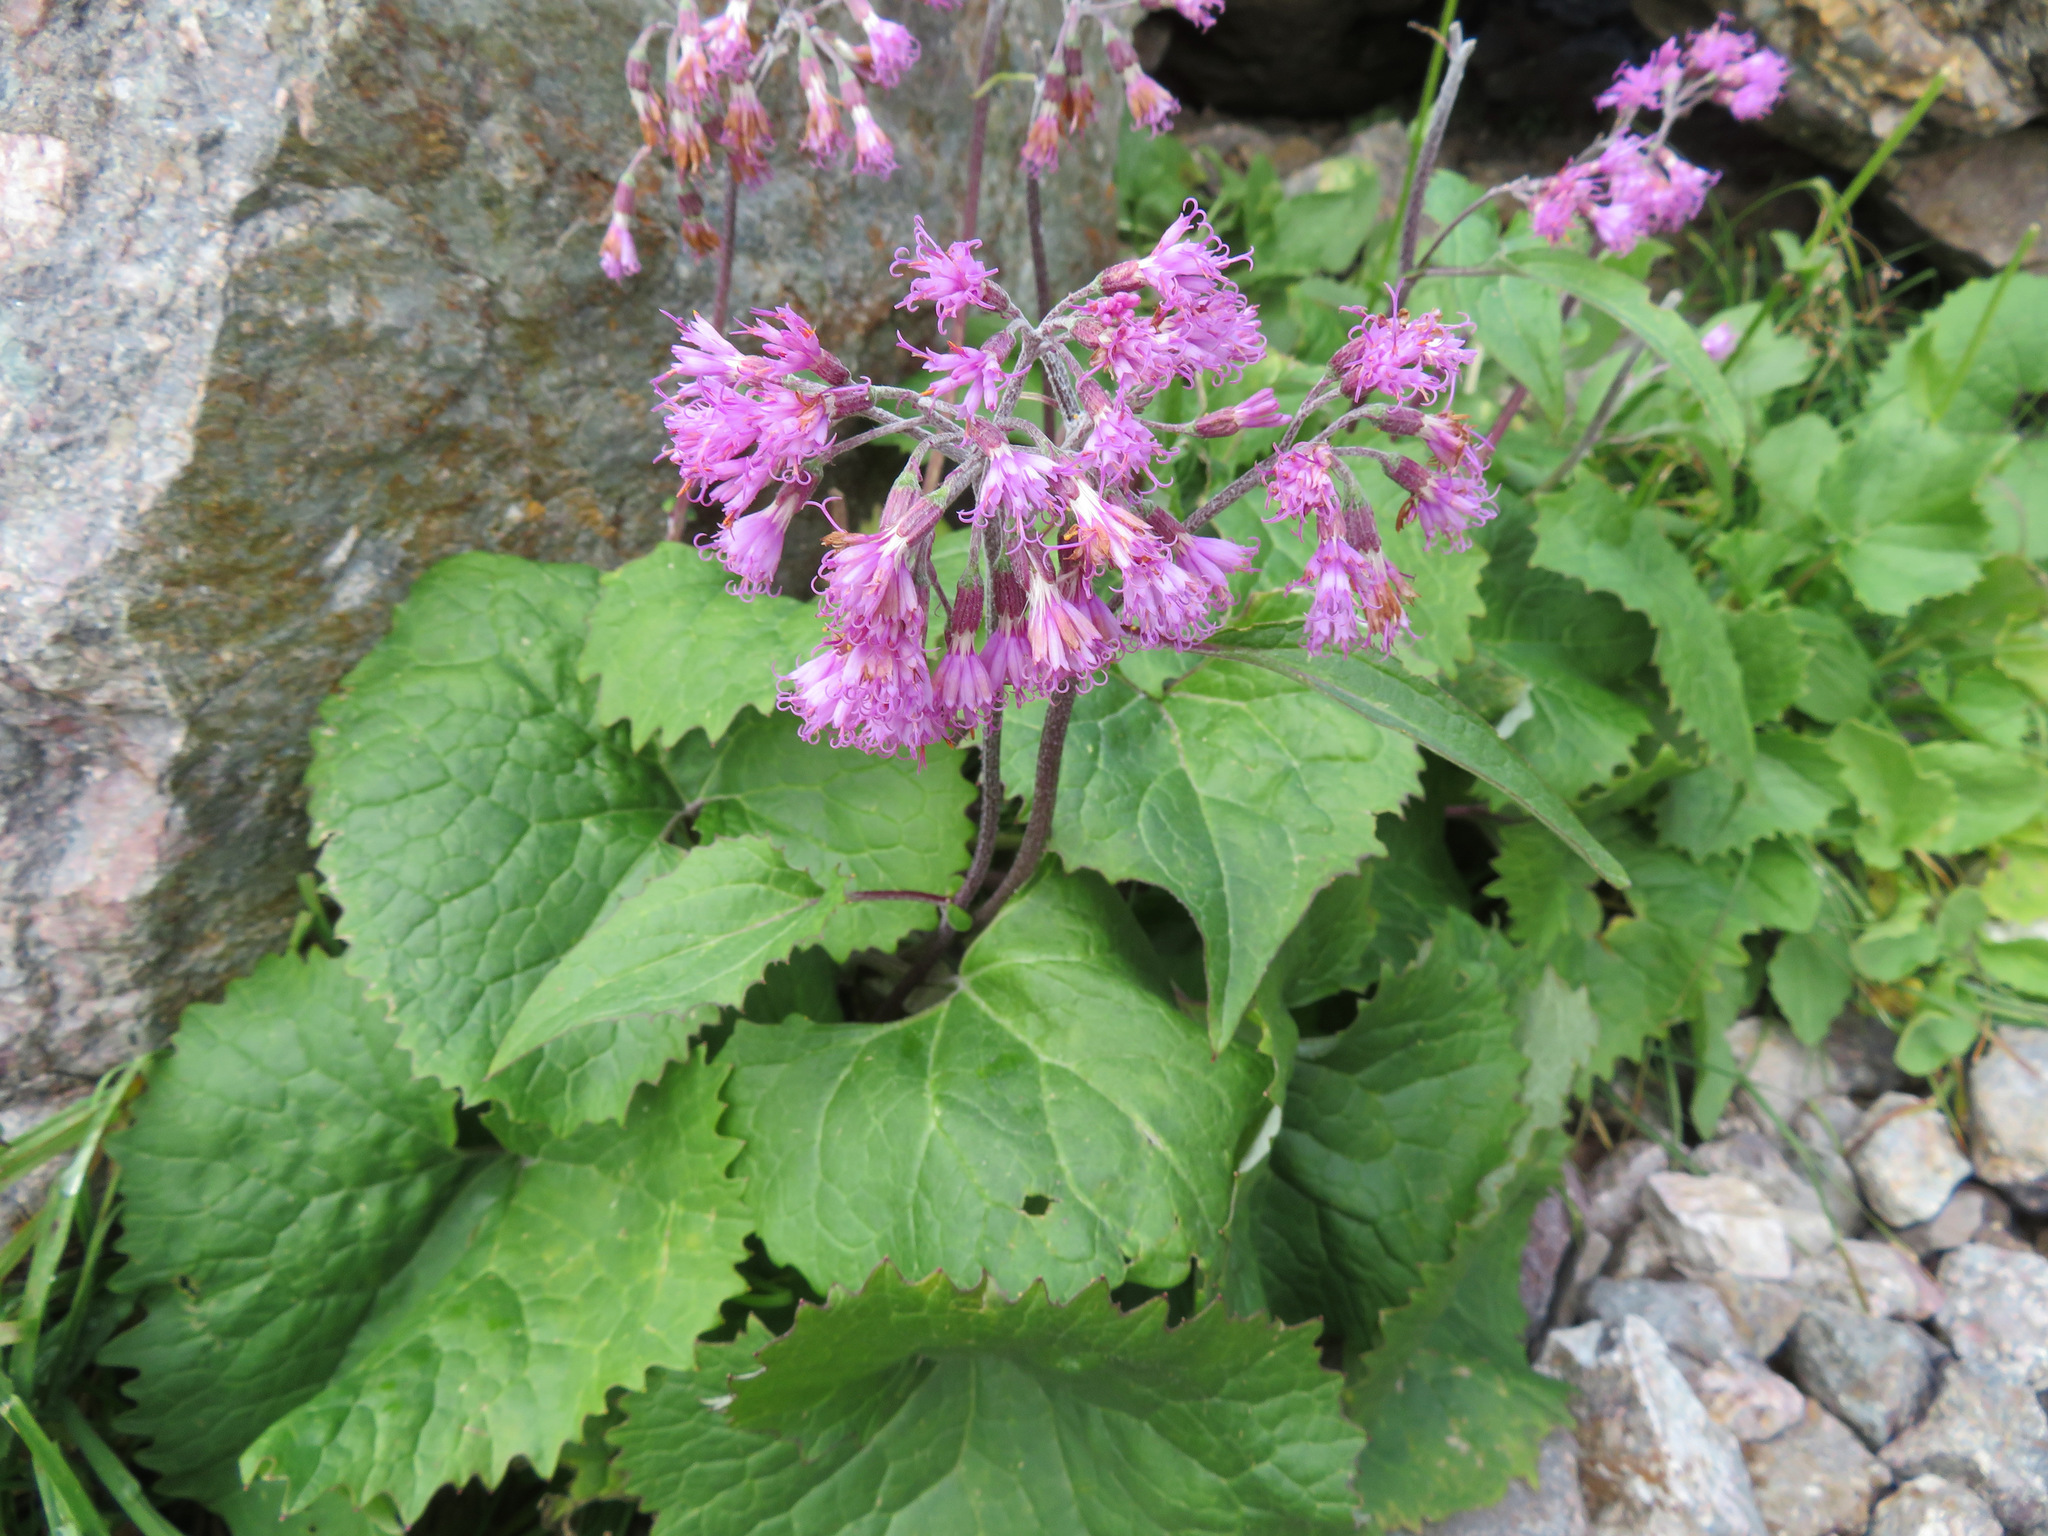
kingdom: Plantae
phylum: Tracheophyta
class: Magnoliopsida
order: Asterales
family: Asteraceae
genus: Adenostyles
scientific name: Adenostyles alliariae
